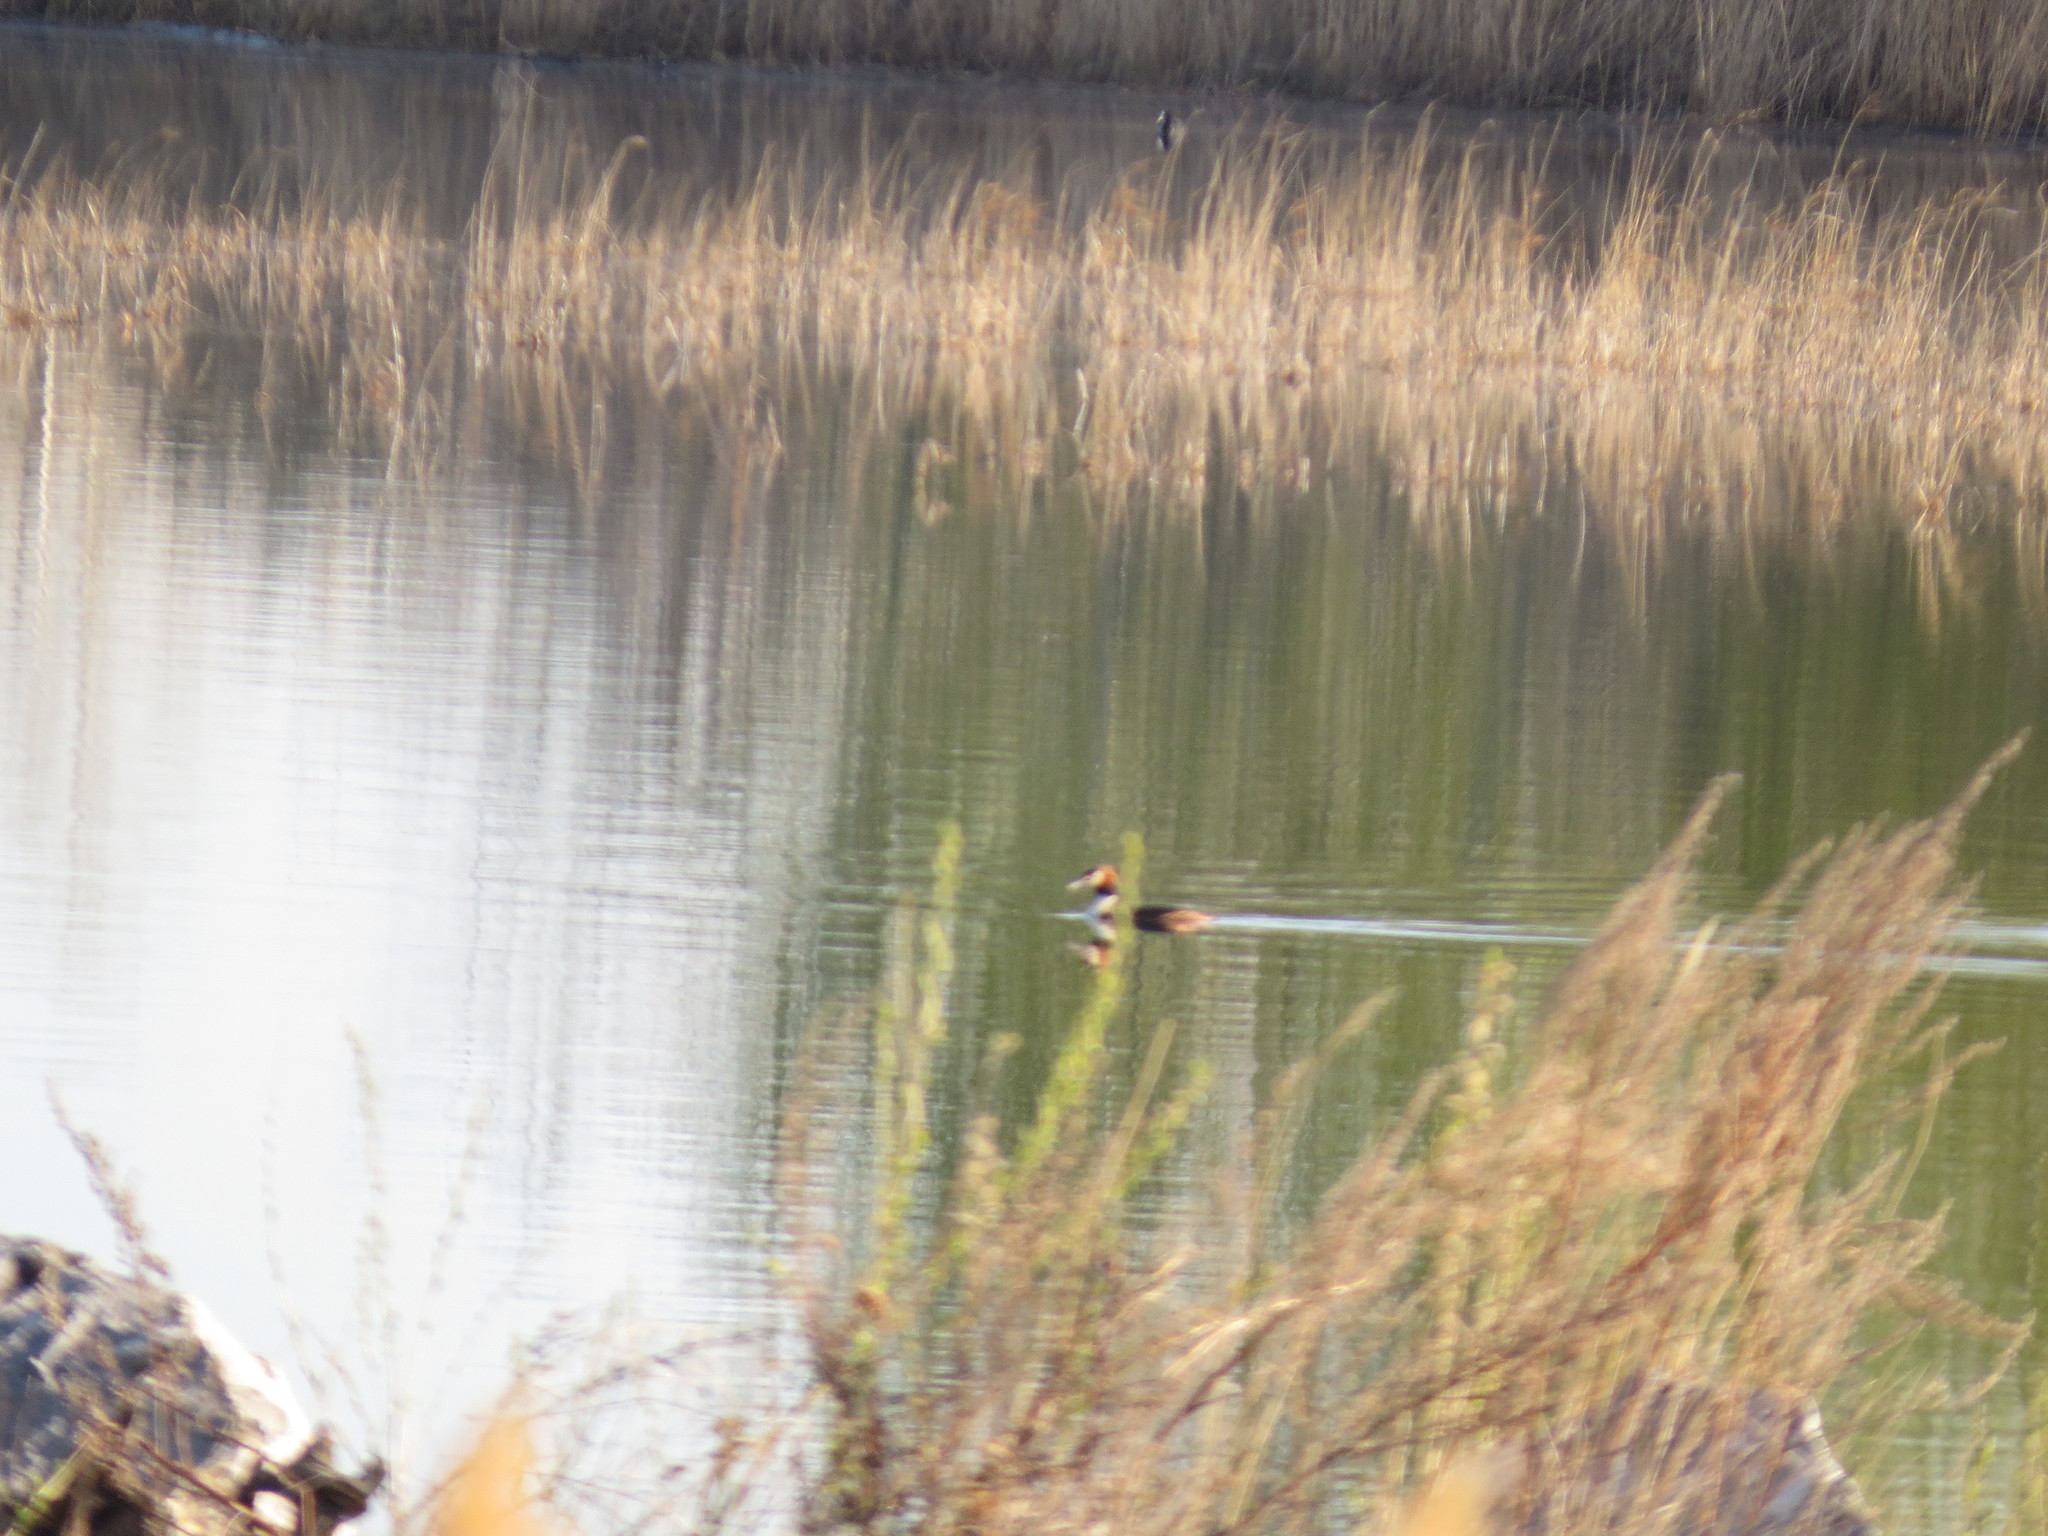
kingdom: Animalia
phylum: Chordata
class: Aves
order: Podicipediformes
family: Podicipedidae
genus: Podiceps
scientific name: Podiceps cristatus
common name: Great crested grebe
